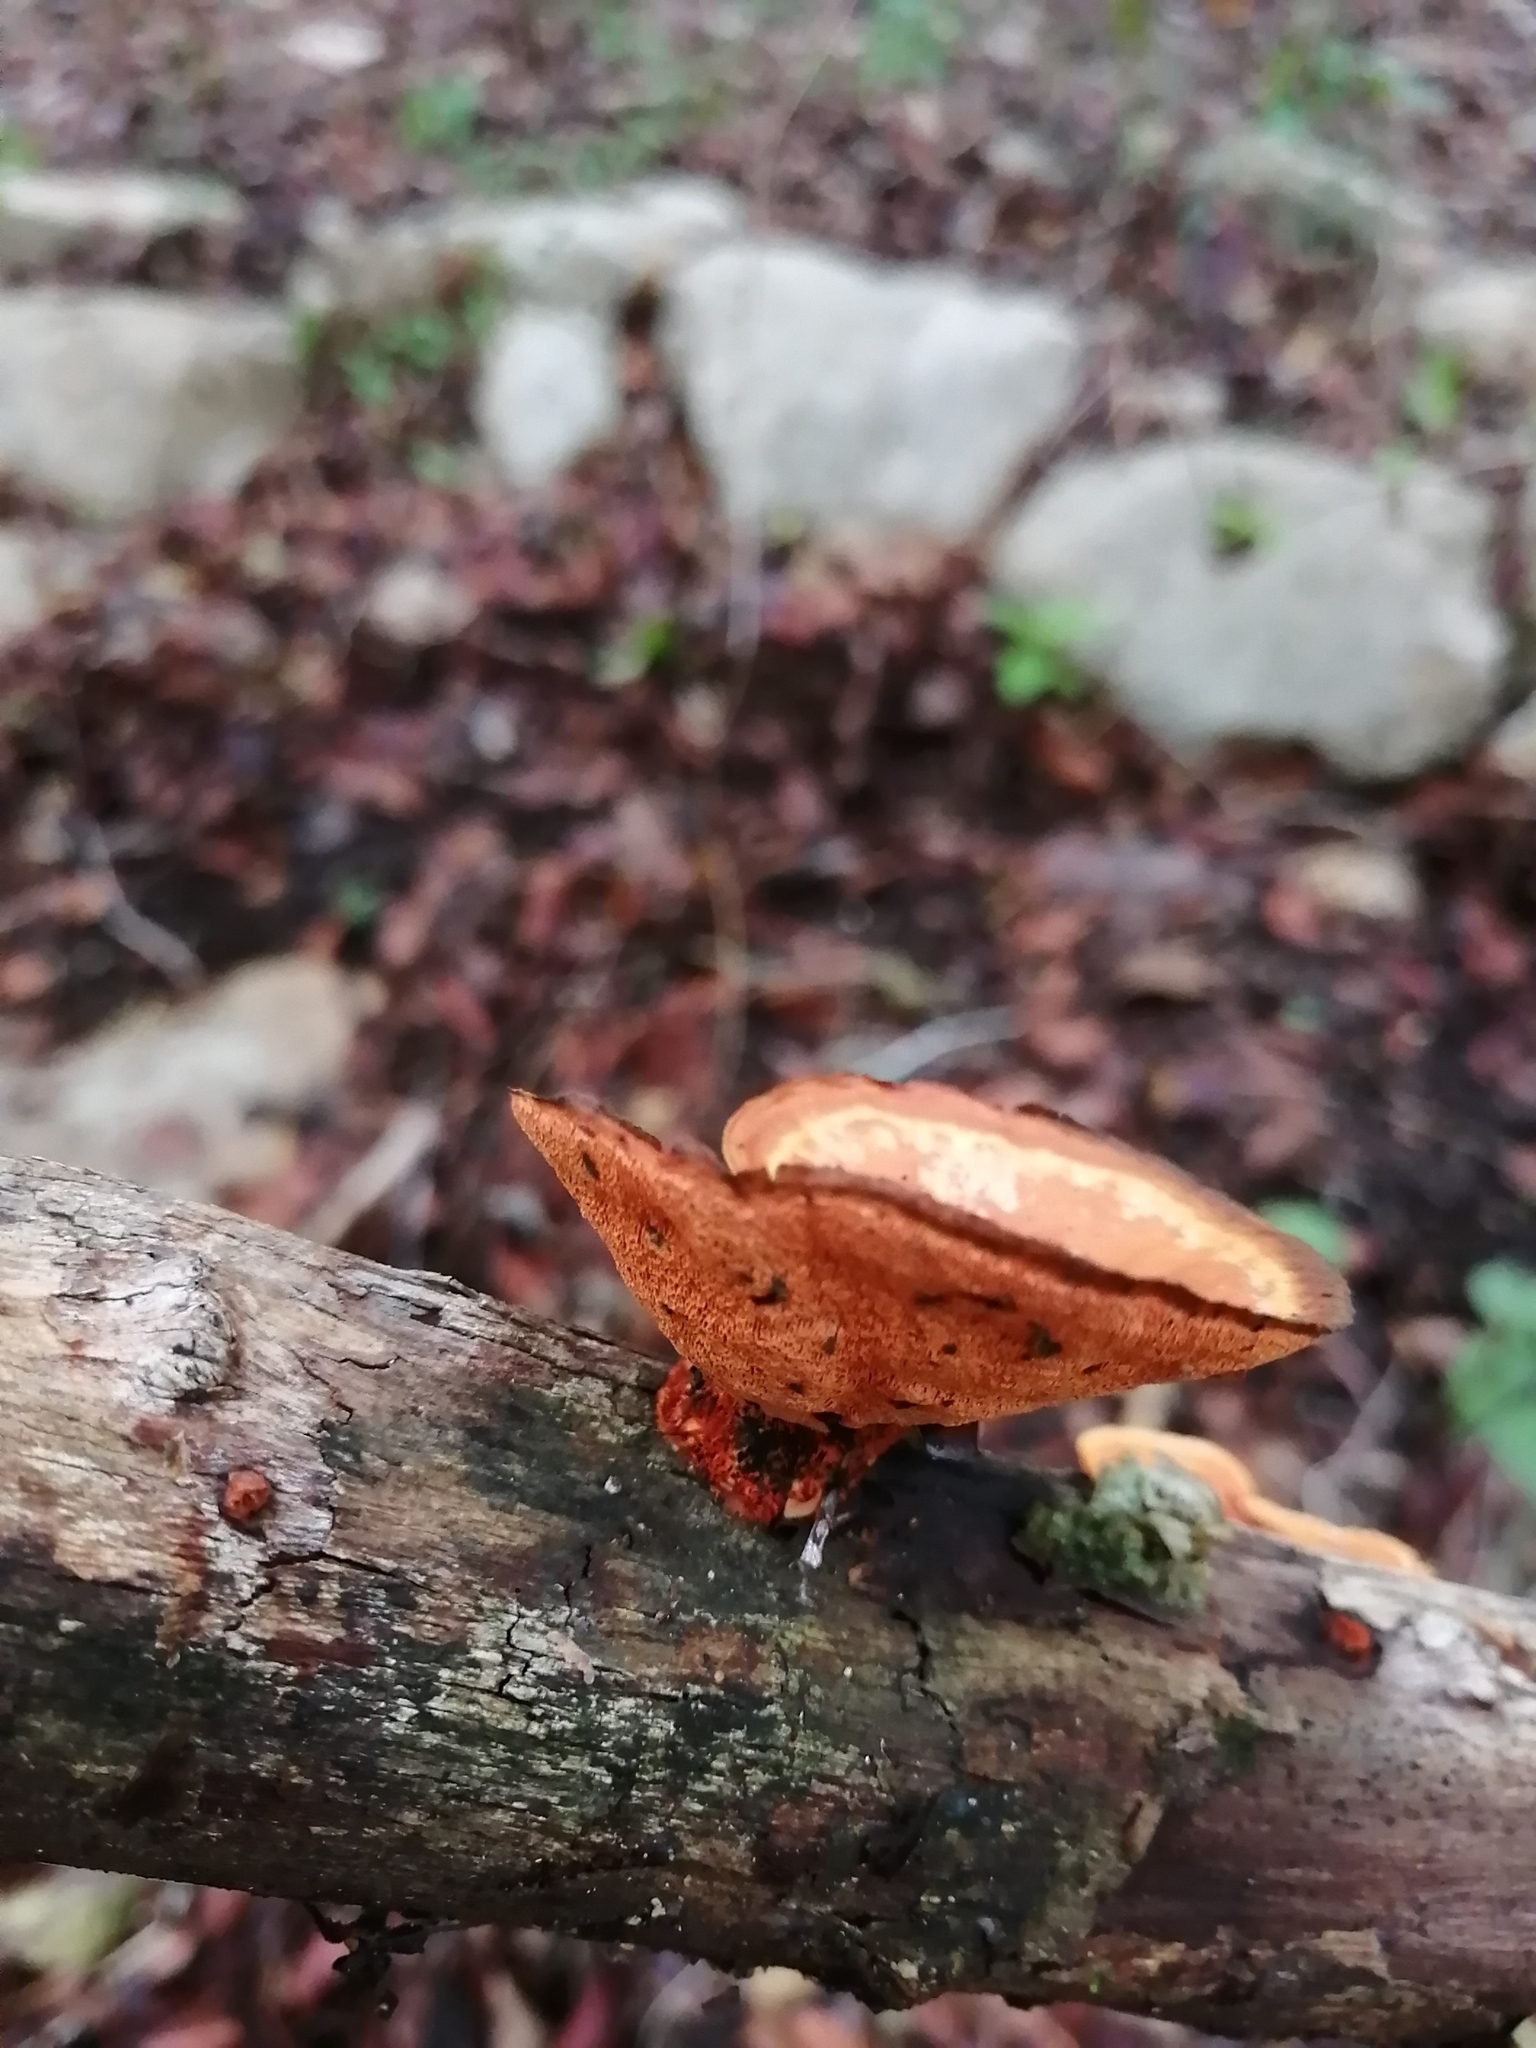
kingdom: Fungi
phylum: Basidiomycota
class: Agaricomycetes
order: Polyporales
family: Polyporaceae
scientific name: Polyporaceae
